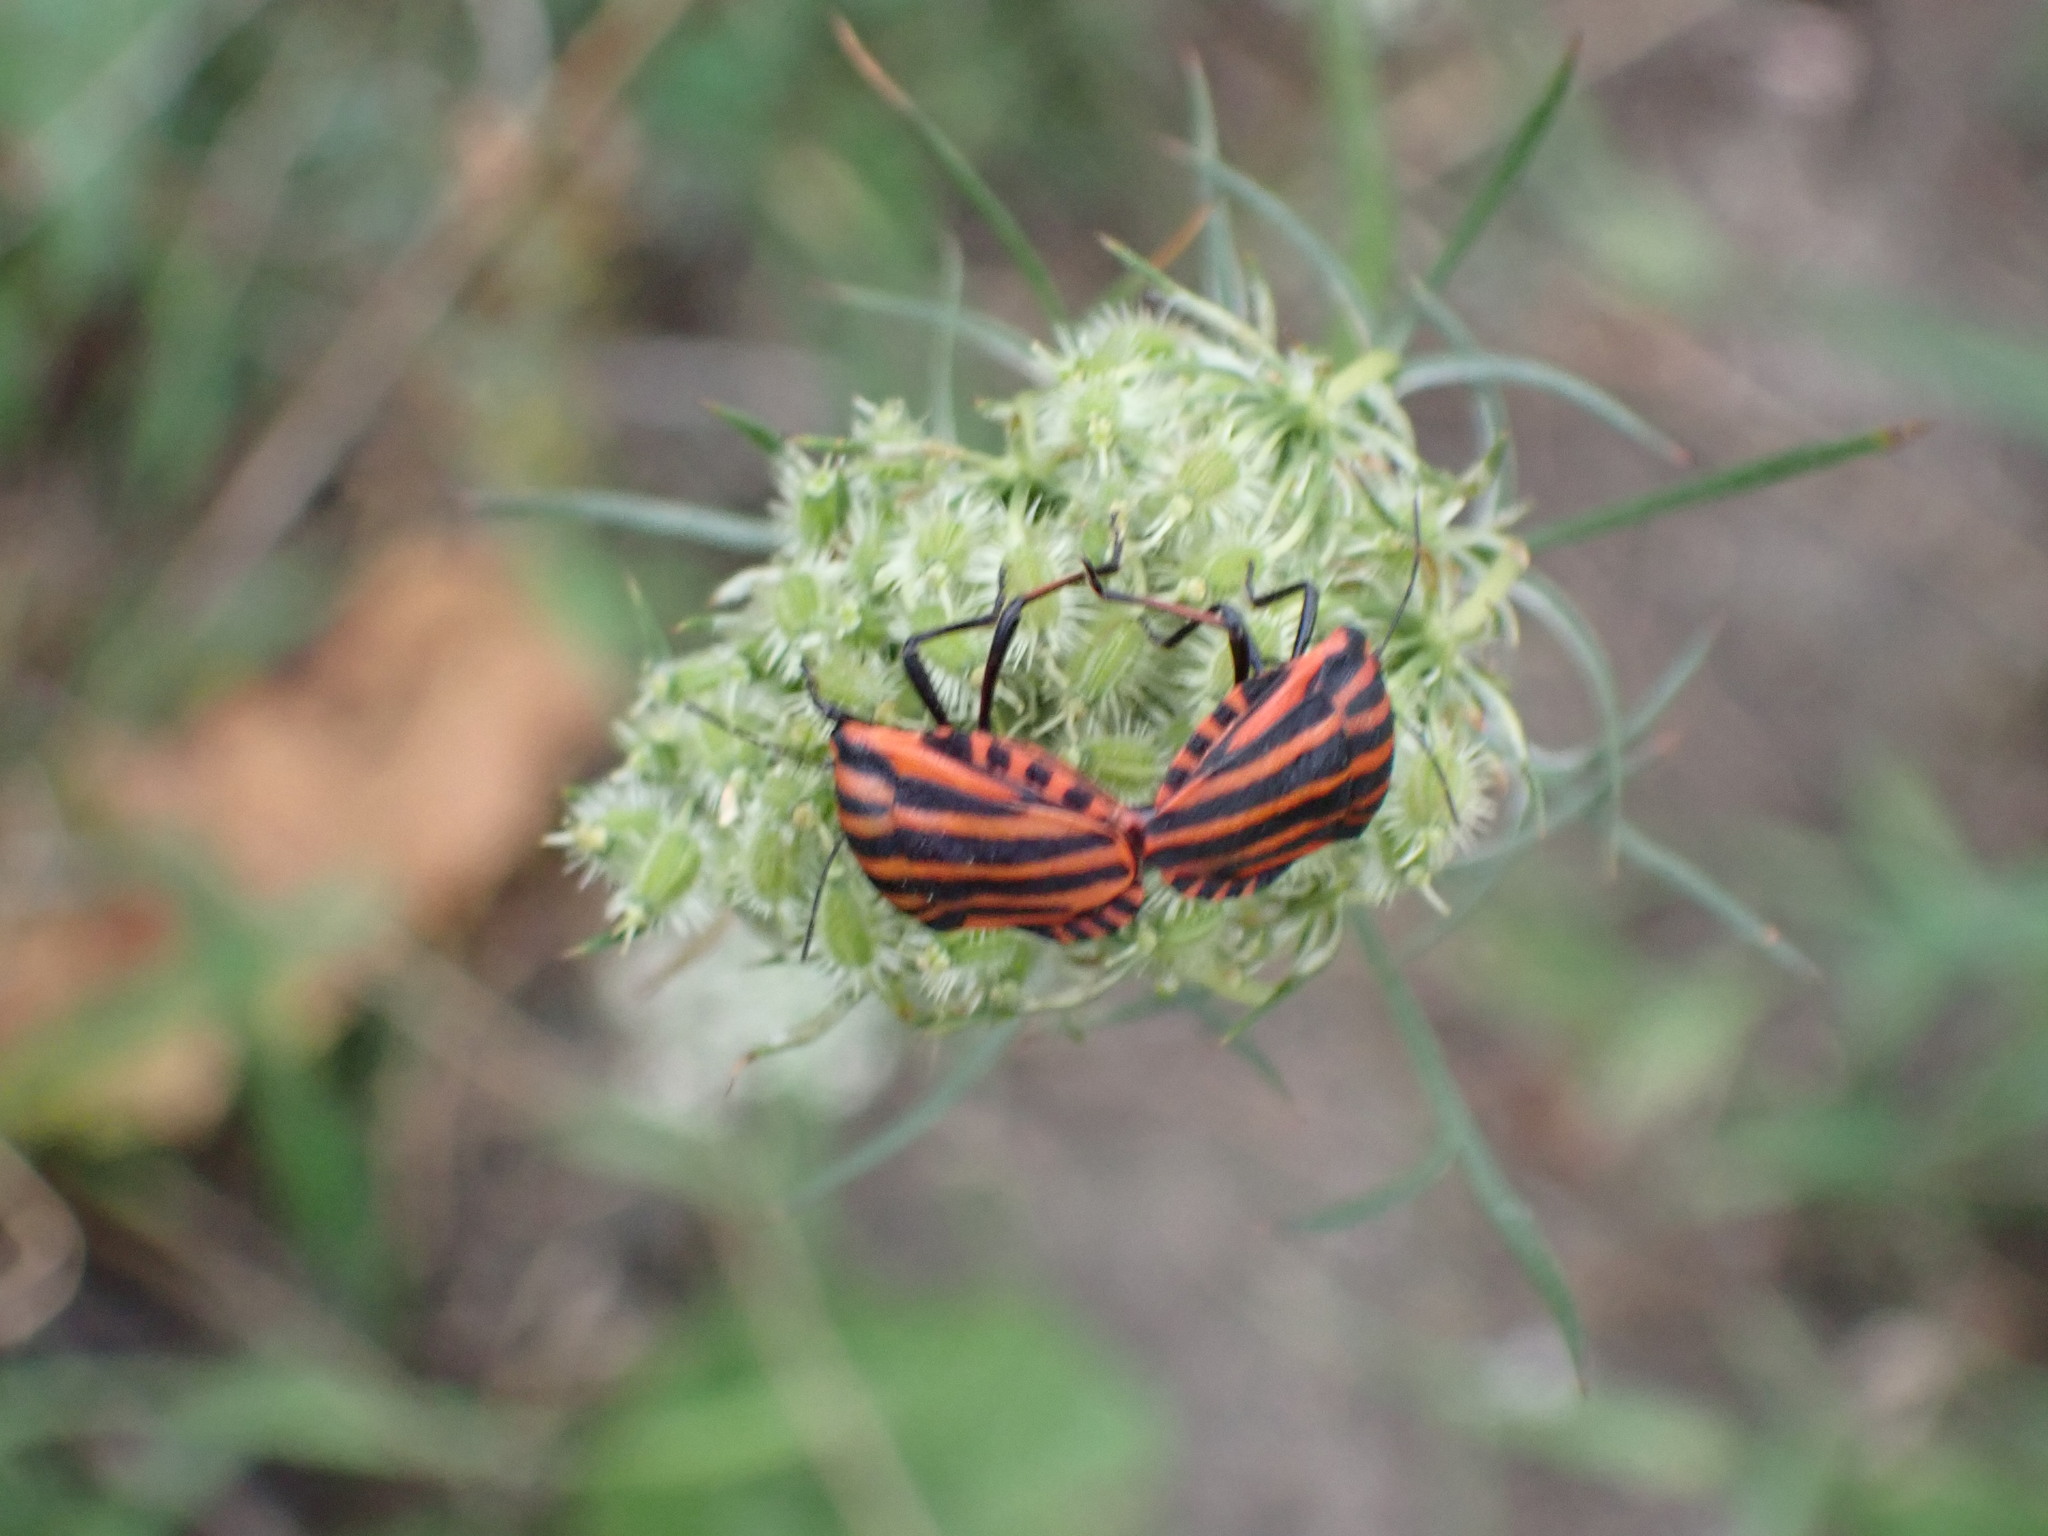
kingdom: Animalia
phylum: Arthropoda
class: Insecta
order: Hemiptera
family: Pentatomidae
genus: Graphosoma
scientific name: Graphosoma italicum
